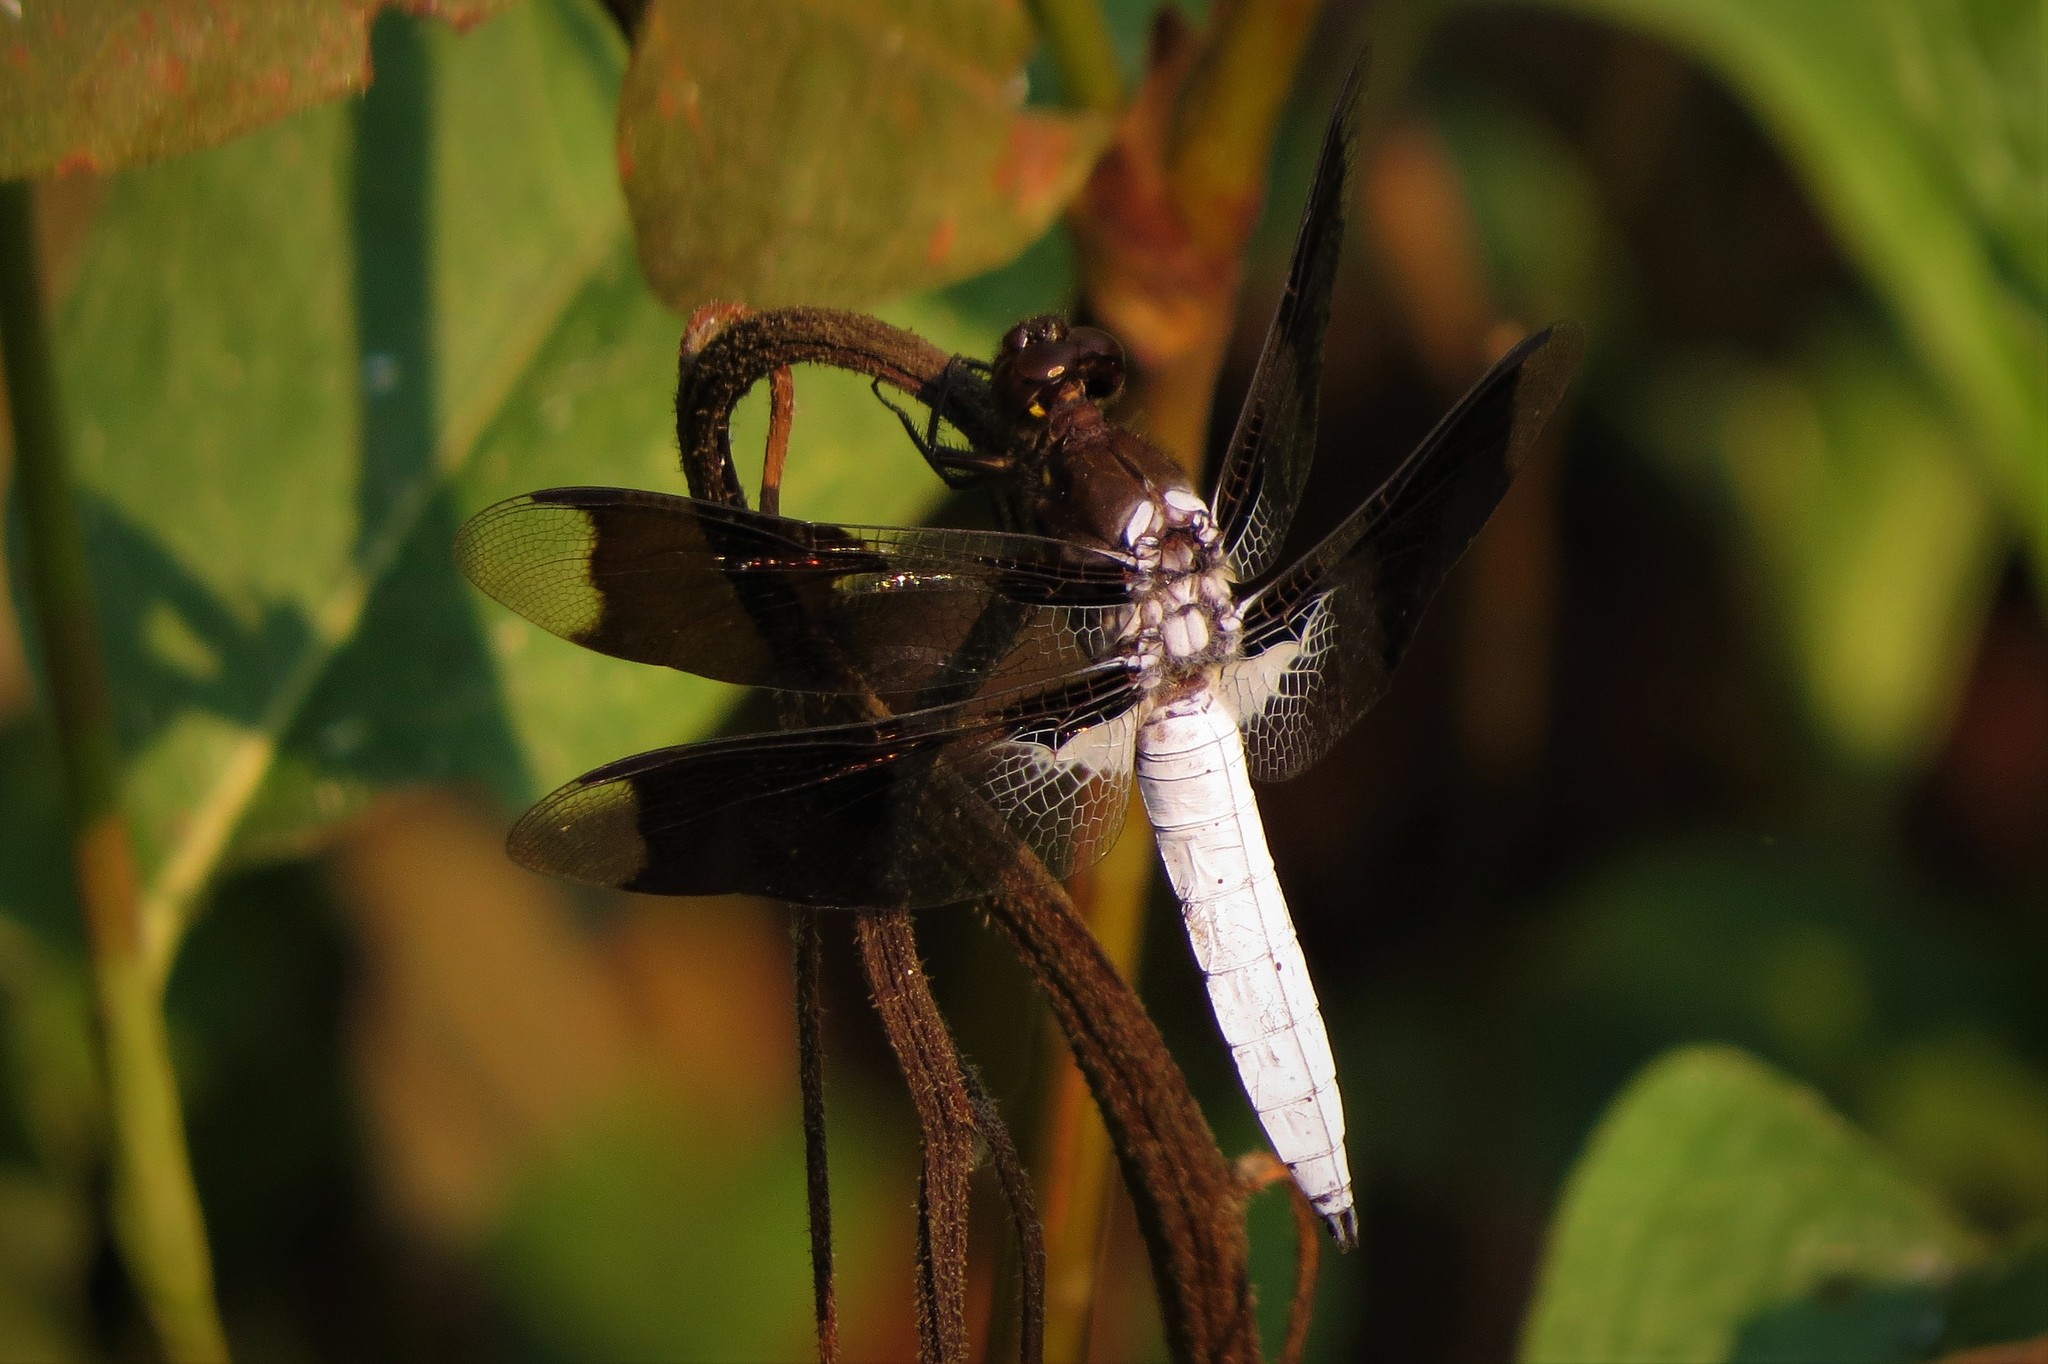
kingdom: Animalia
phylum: Arthropoda
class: Insecta
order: Odonata
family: Libellulidae
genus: Plathemis
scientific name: Plathemis lydia
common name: Common whitetail
